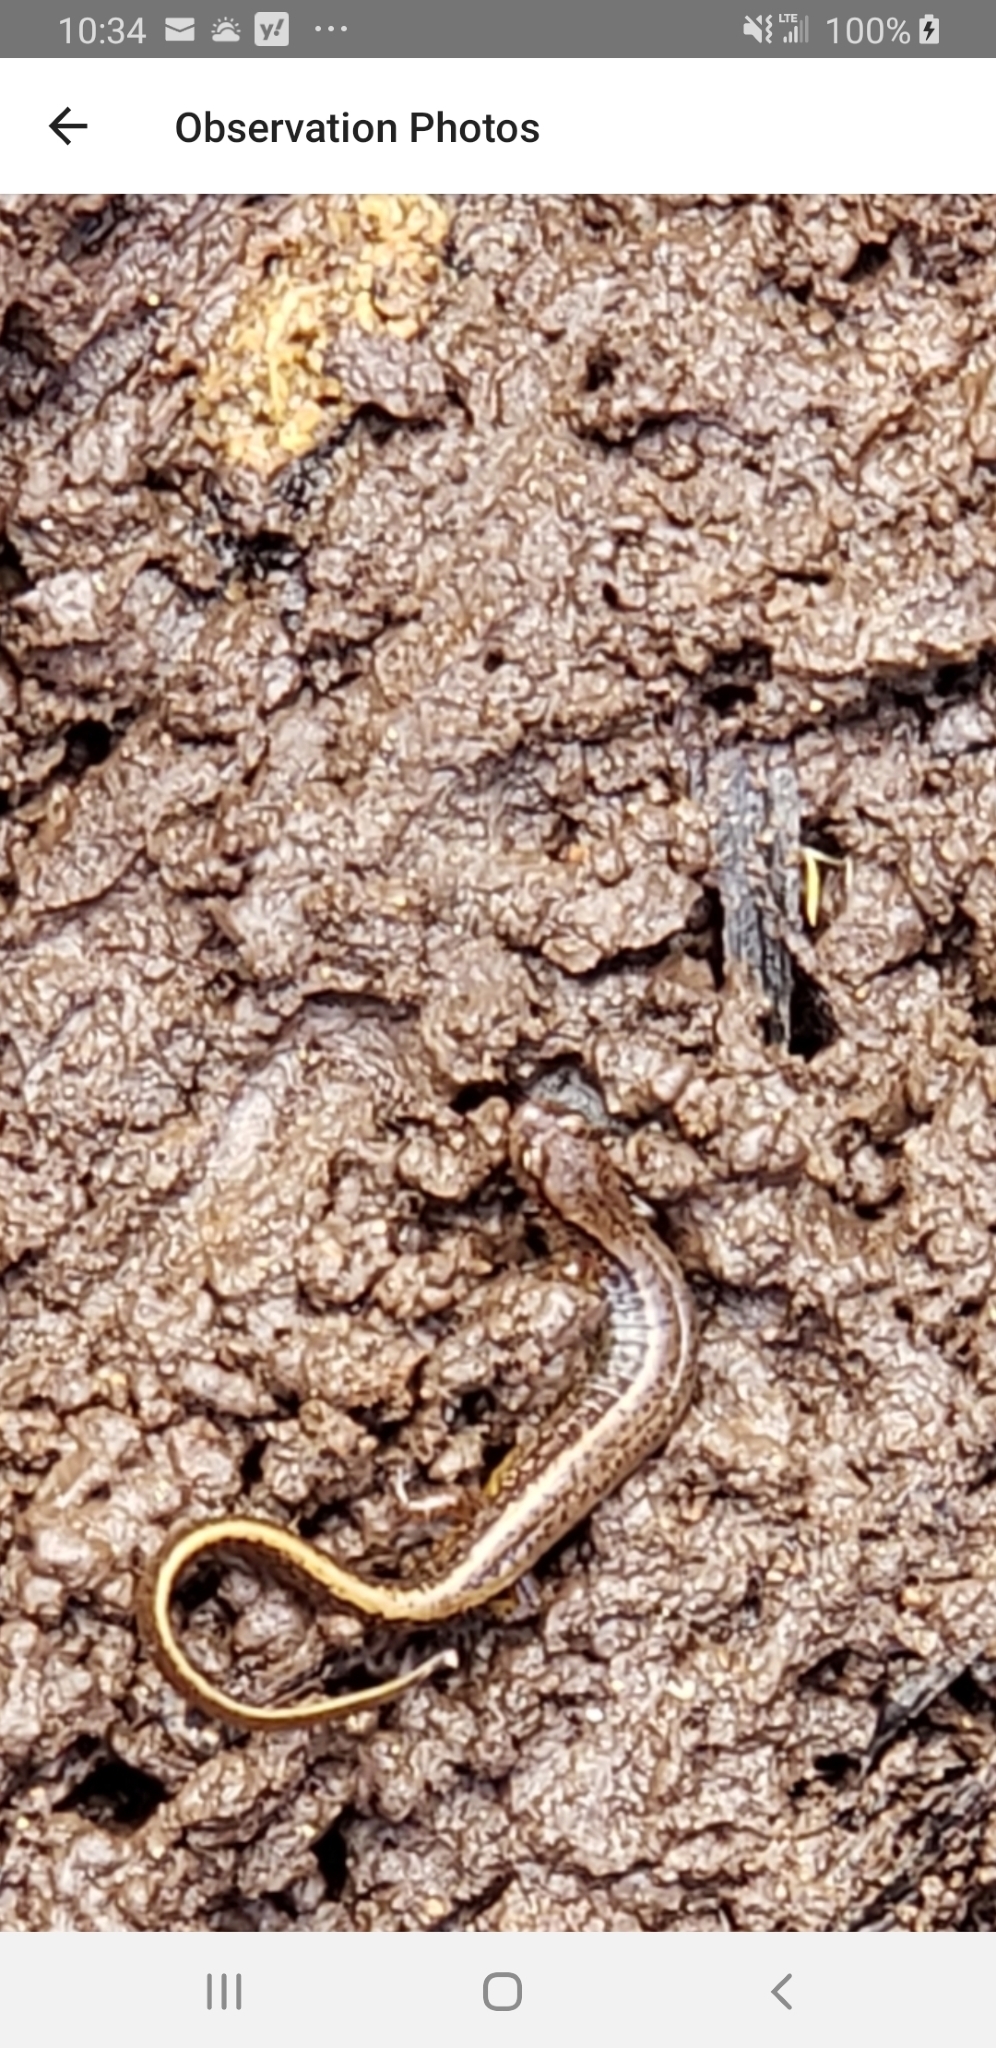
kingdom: Animalia
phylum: Chordata
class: Amphibia
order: Caudata
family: Plethodontidae
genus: Eurycea
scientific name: Eurycea bislineata
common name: Northern two-lined salamander
